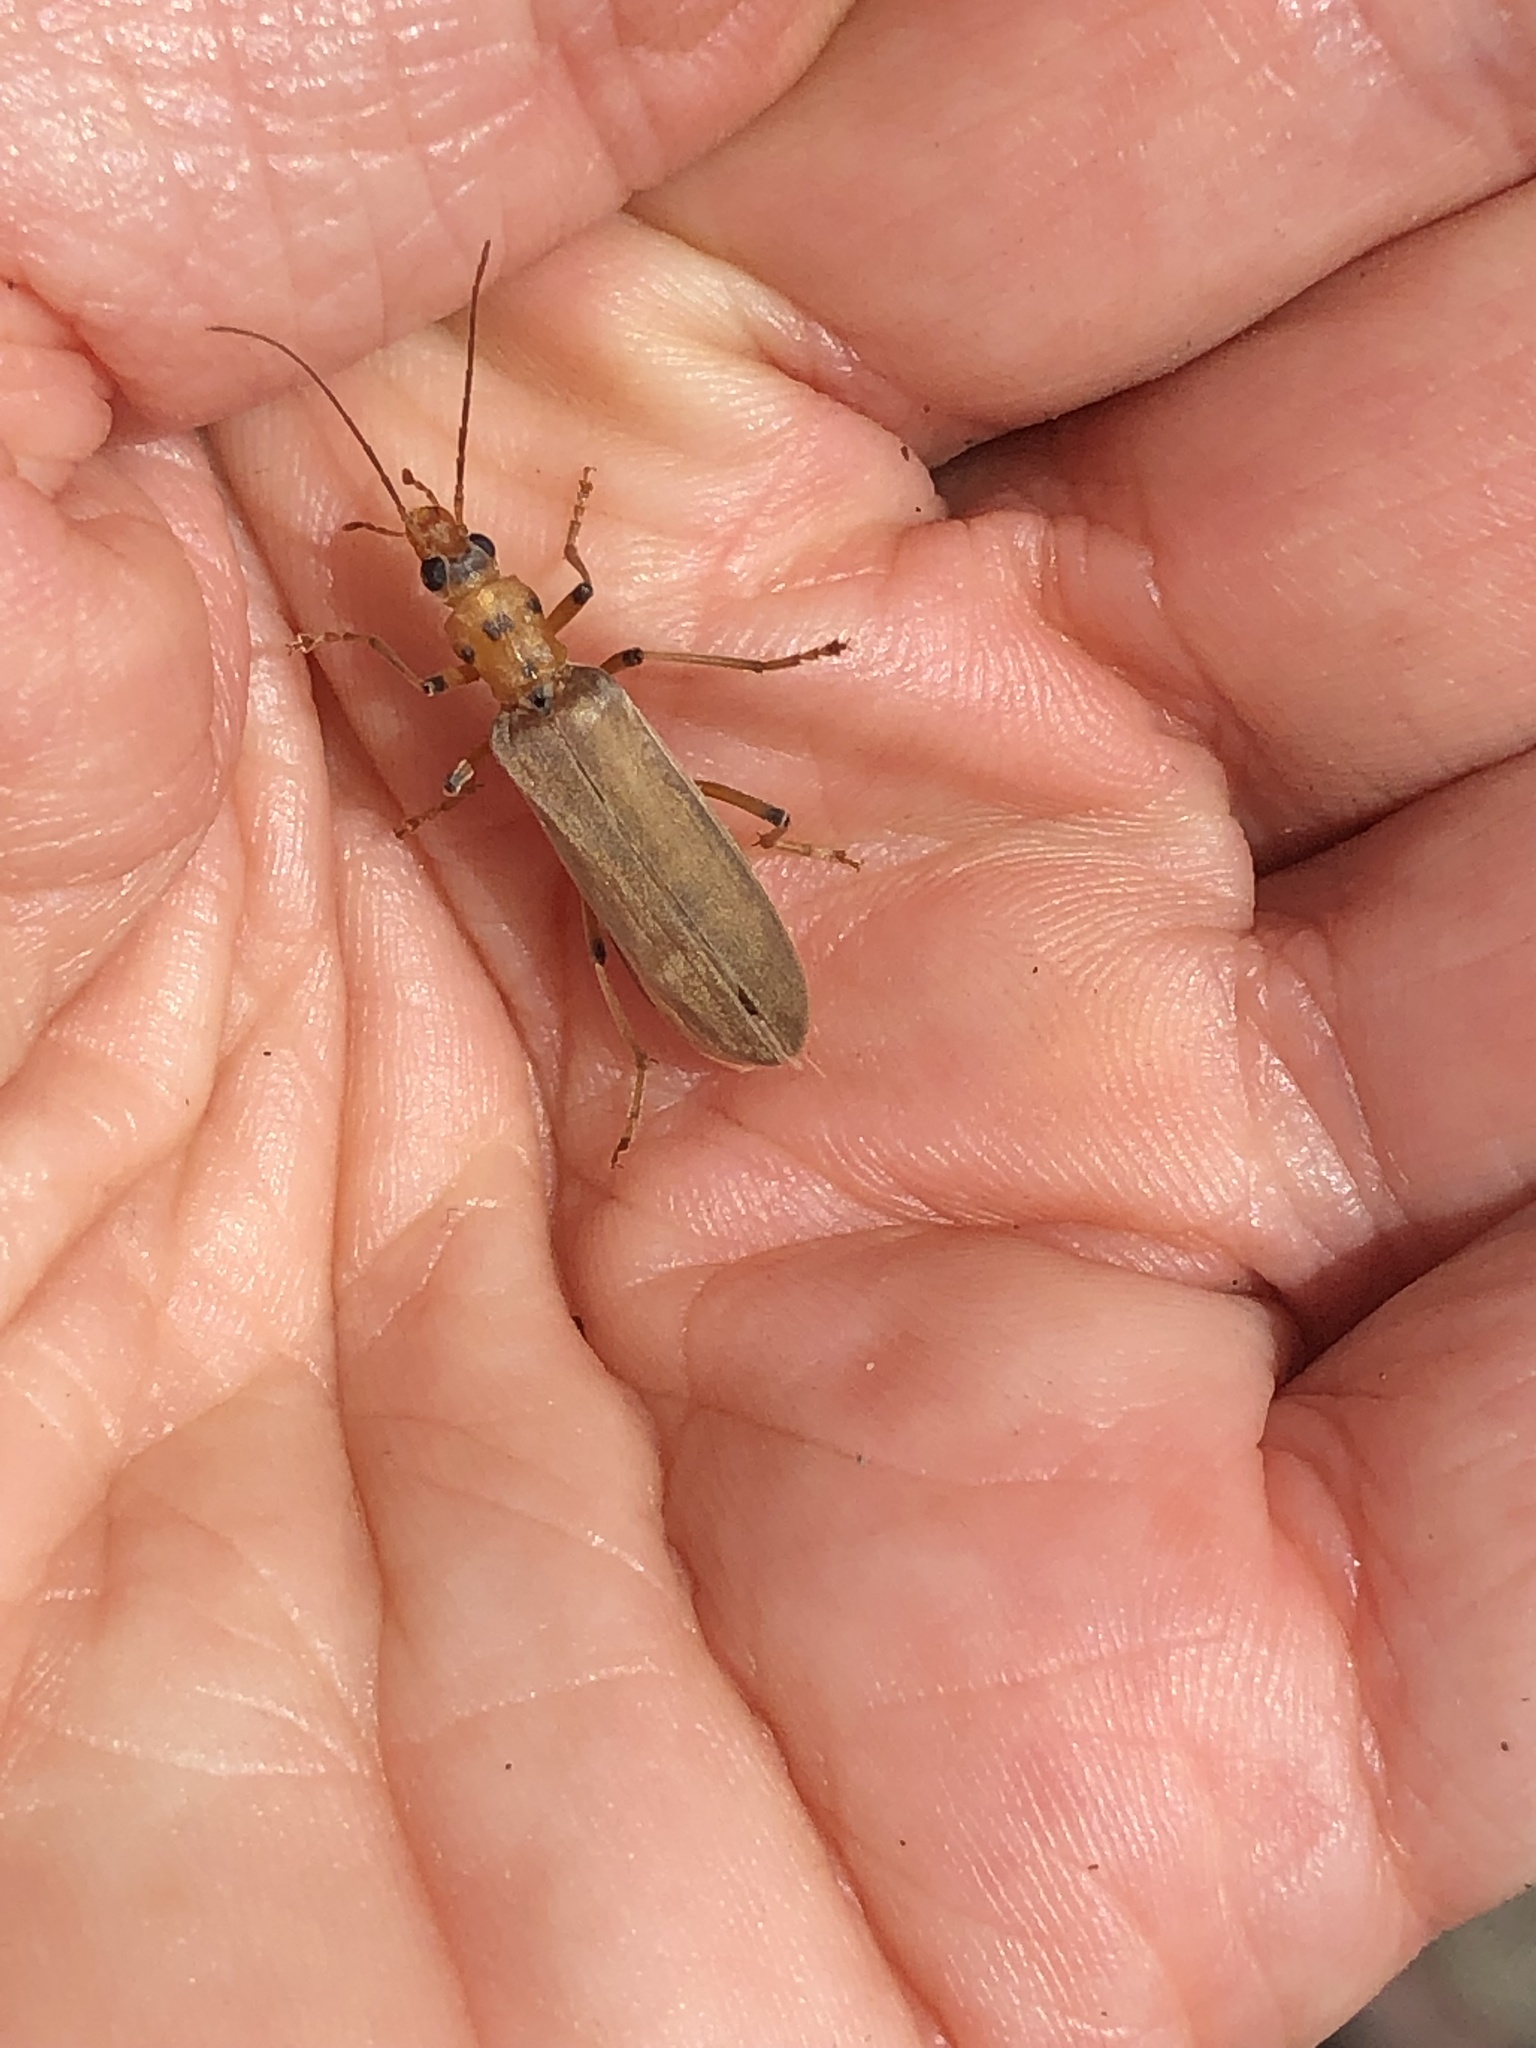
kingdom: Animalia
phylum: Arthropoda
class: Insecta
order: Coleoptera
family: Oedemeridae
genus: Copidita
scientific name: Copidita quadrimaculata
